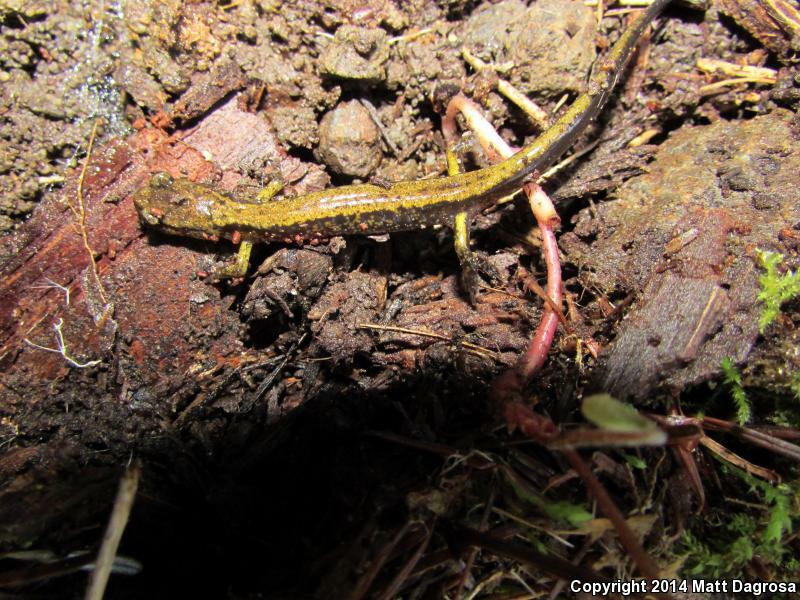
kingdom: Animalia
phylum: Chordata
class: Amphibia
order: Caudata
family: Plethodontidae
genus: Plethodon
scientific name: Plethodon dunni
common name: Dunn's salamander
